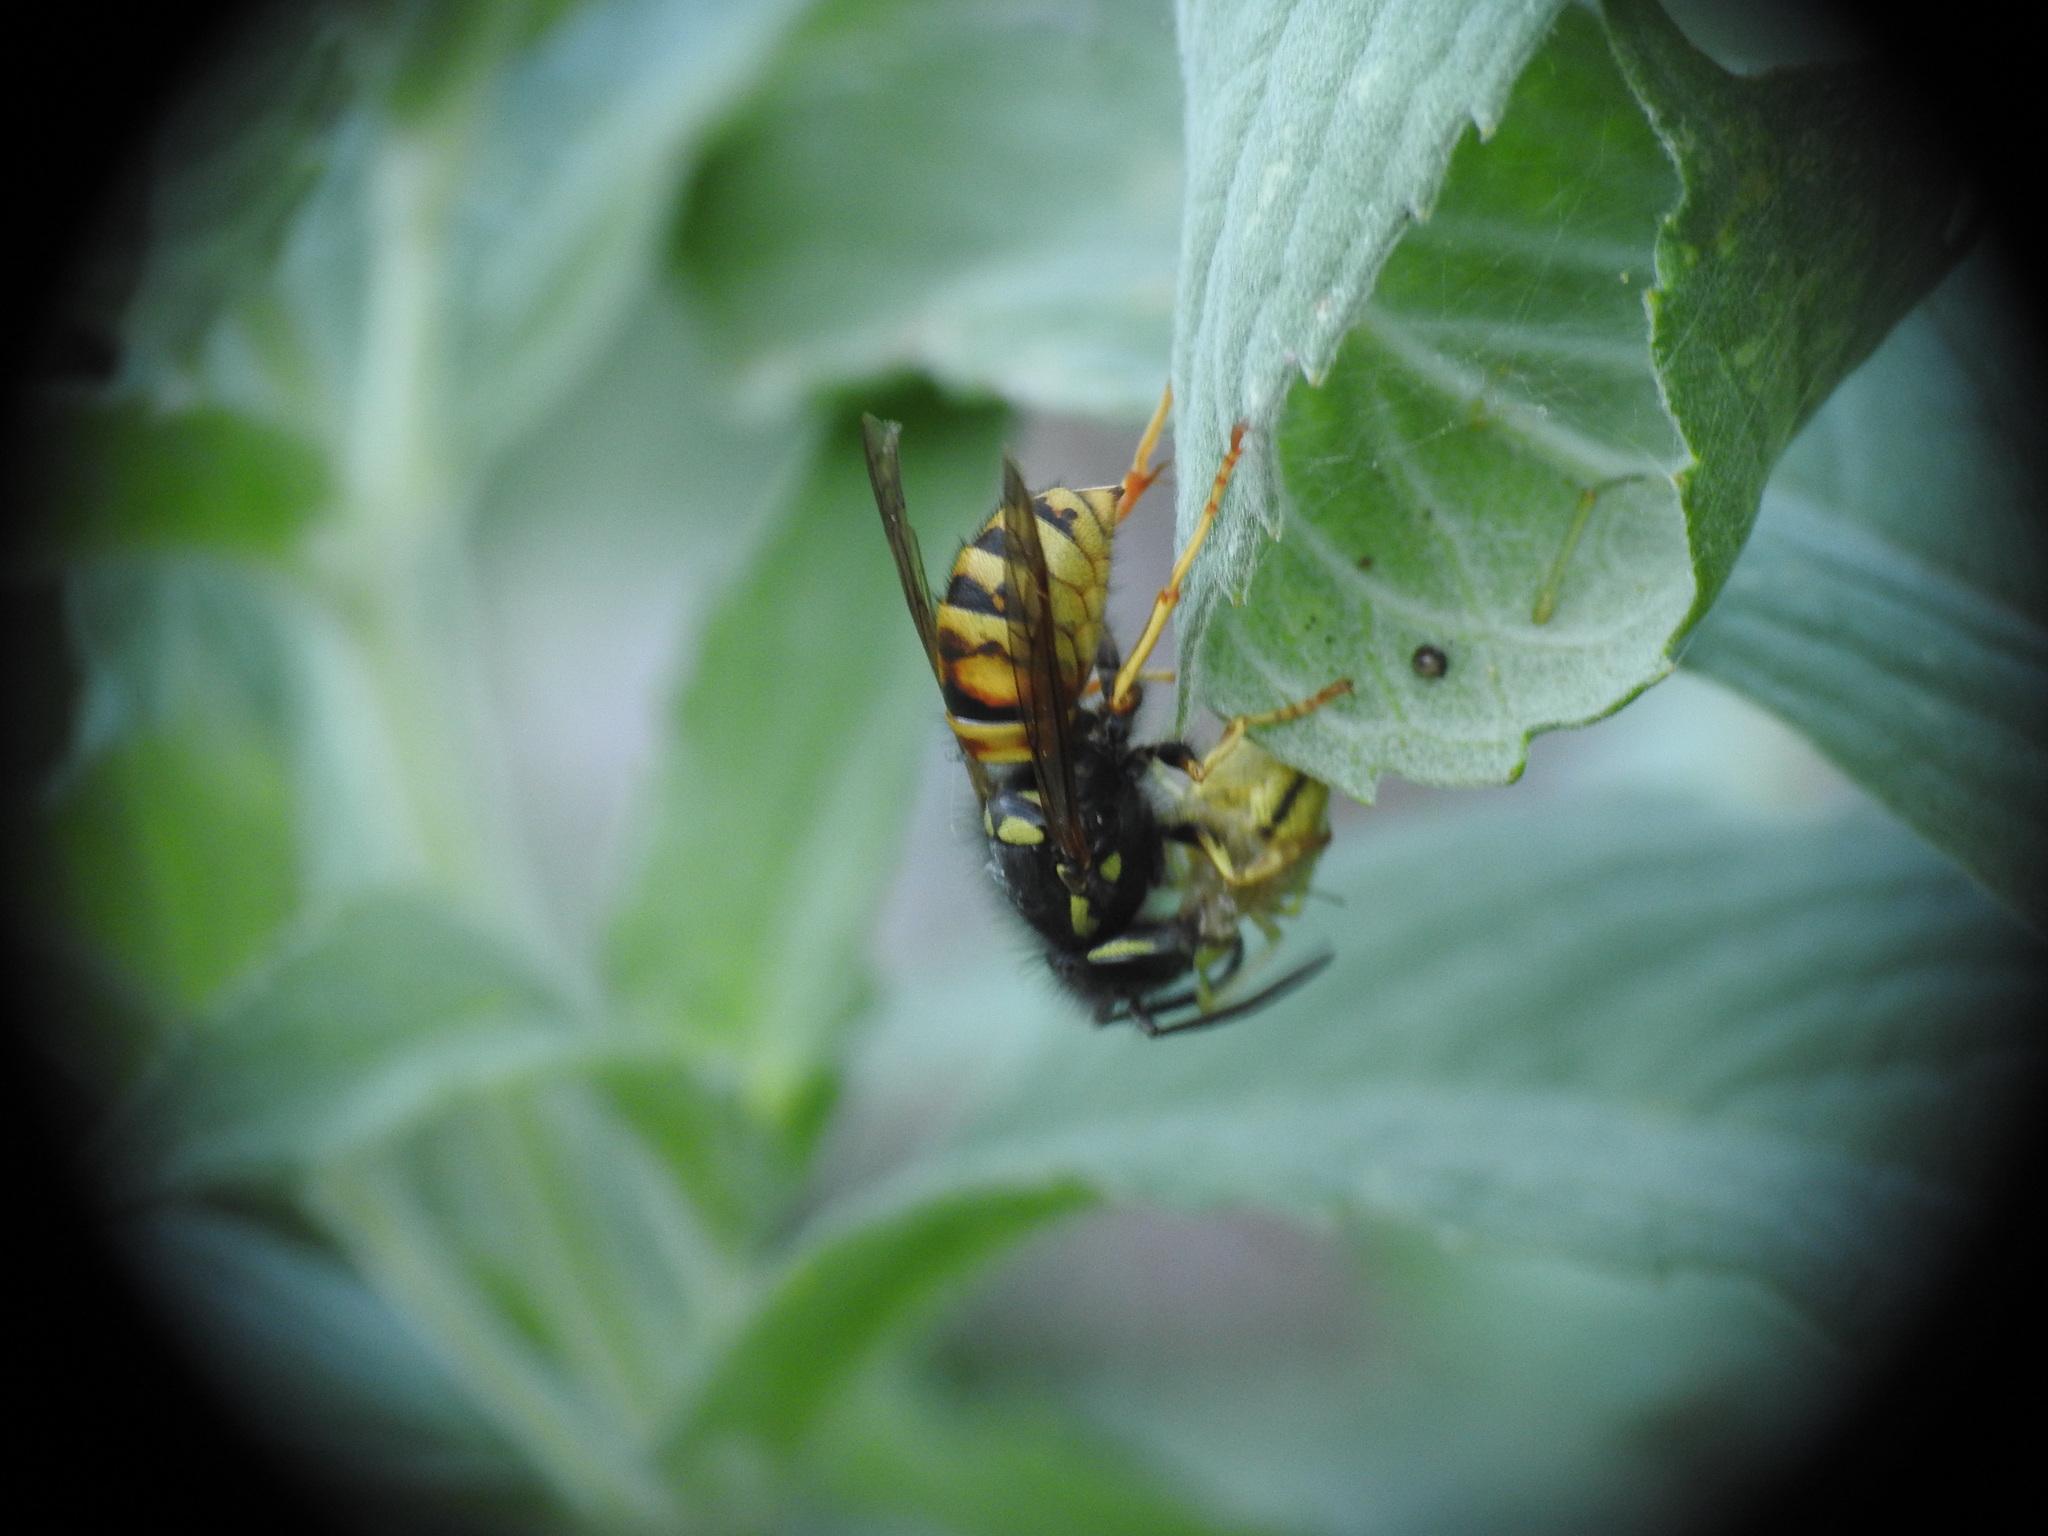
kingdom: Animalia
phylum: Arthropoda
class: Insecta
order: Hymenoptera
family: Vespidae
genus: Vespula
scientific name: Vespula rufa
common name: Red wasp
